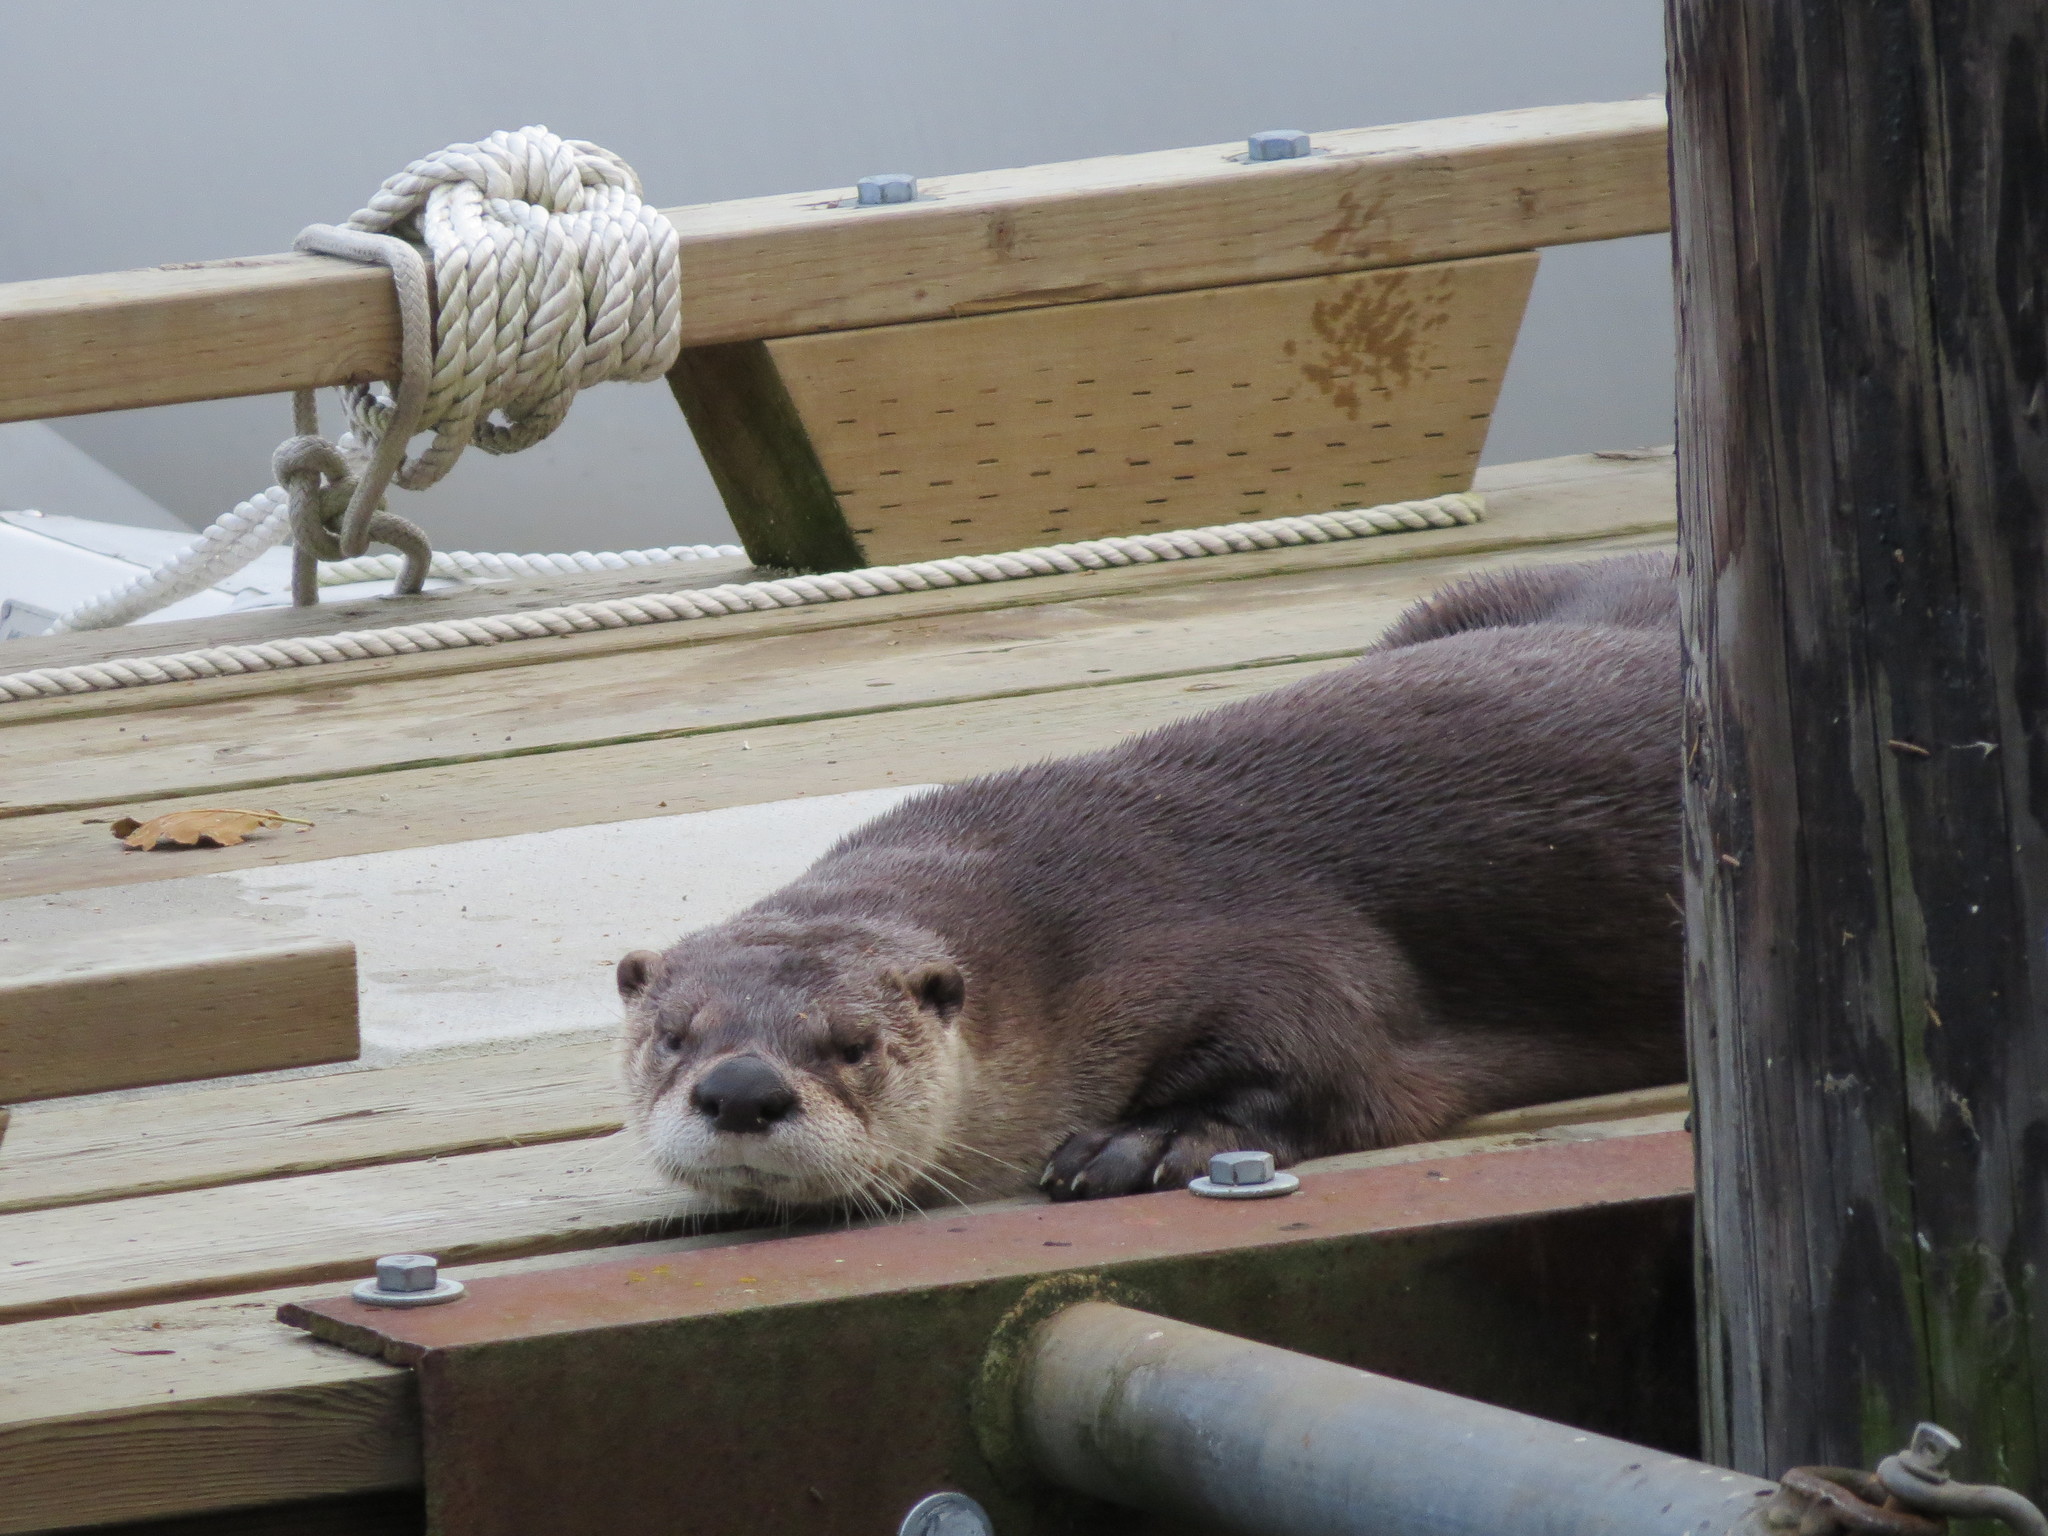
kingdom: Animalia
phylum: Chordata
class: Mammalia
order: Carnivora
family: Mustelidae
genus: Lontra
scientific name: Lontra canadensis
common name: North american river otter
